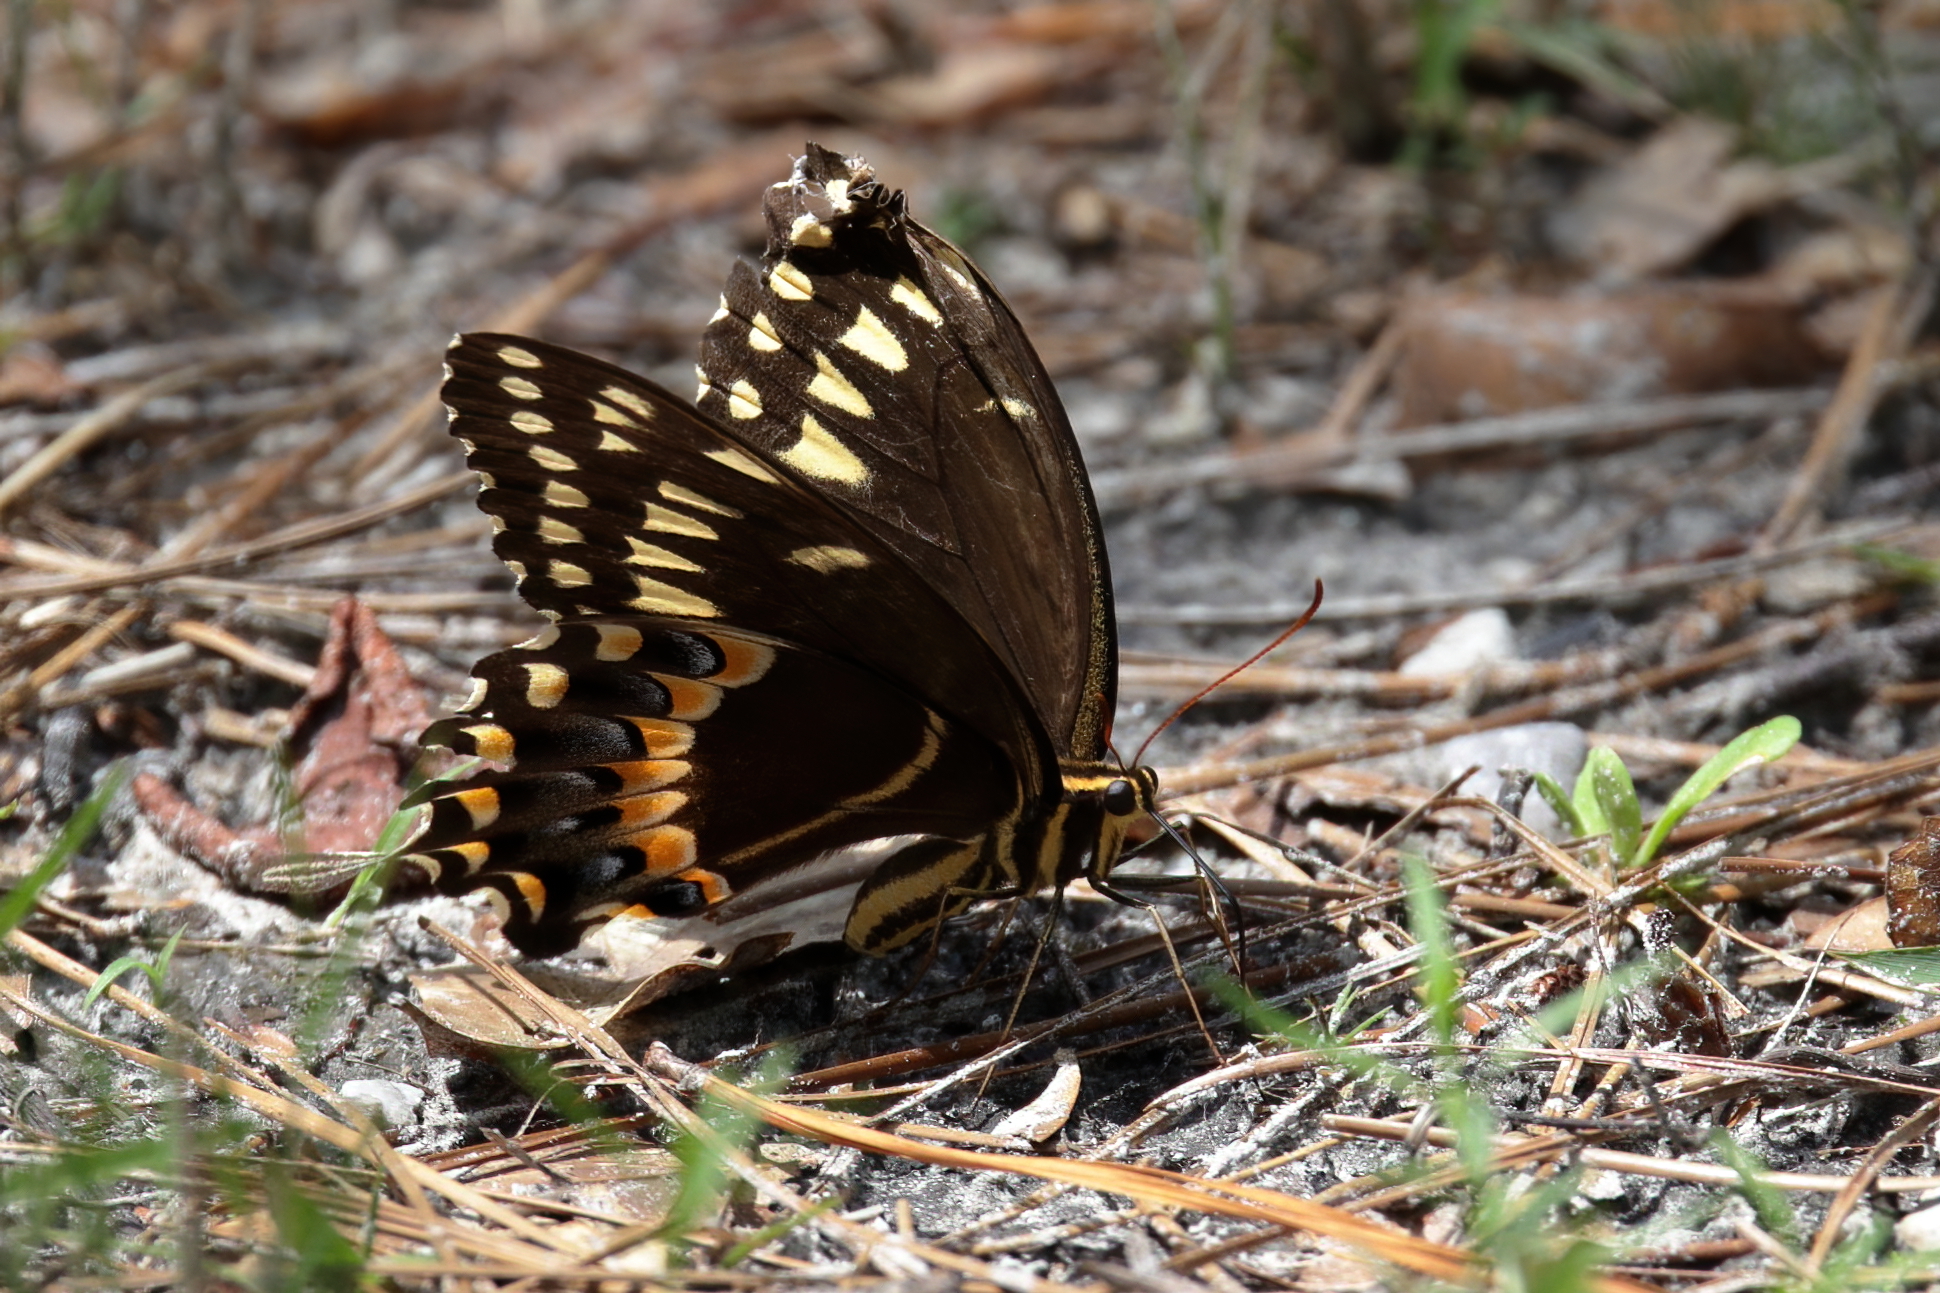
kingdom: Animalia
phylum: Arthropoda
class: Insecta
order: Lepidoptera
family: Papilionidae
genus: Papilio
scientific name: Papilio palamedes
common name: Palamedes swallowtail
